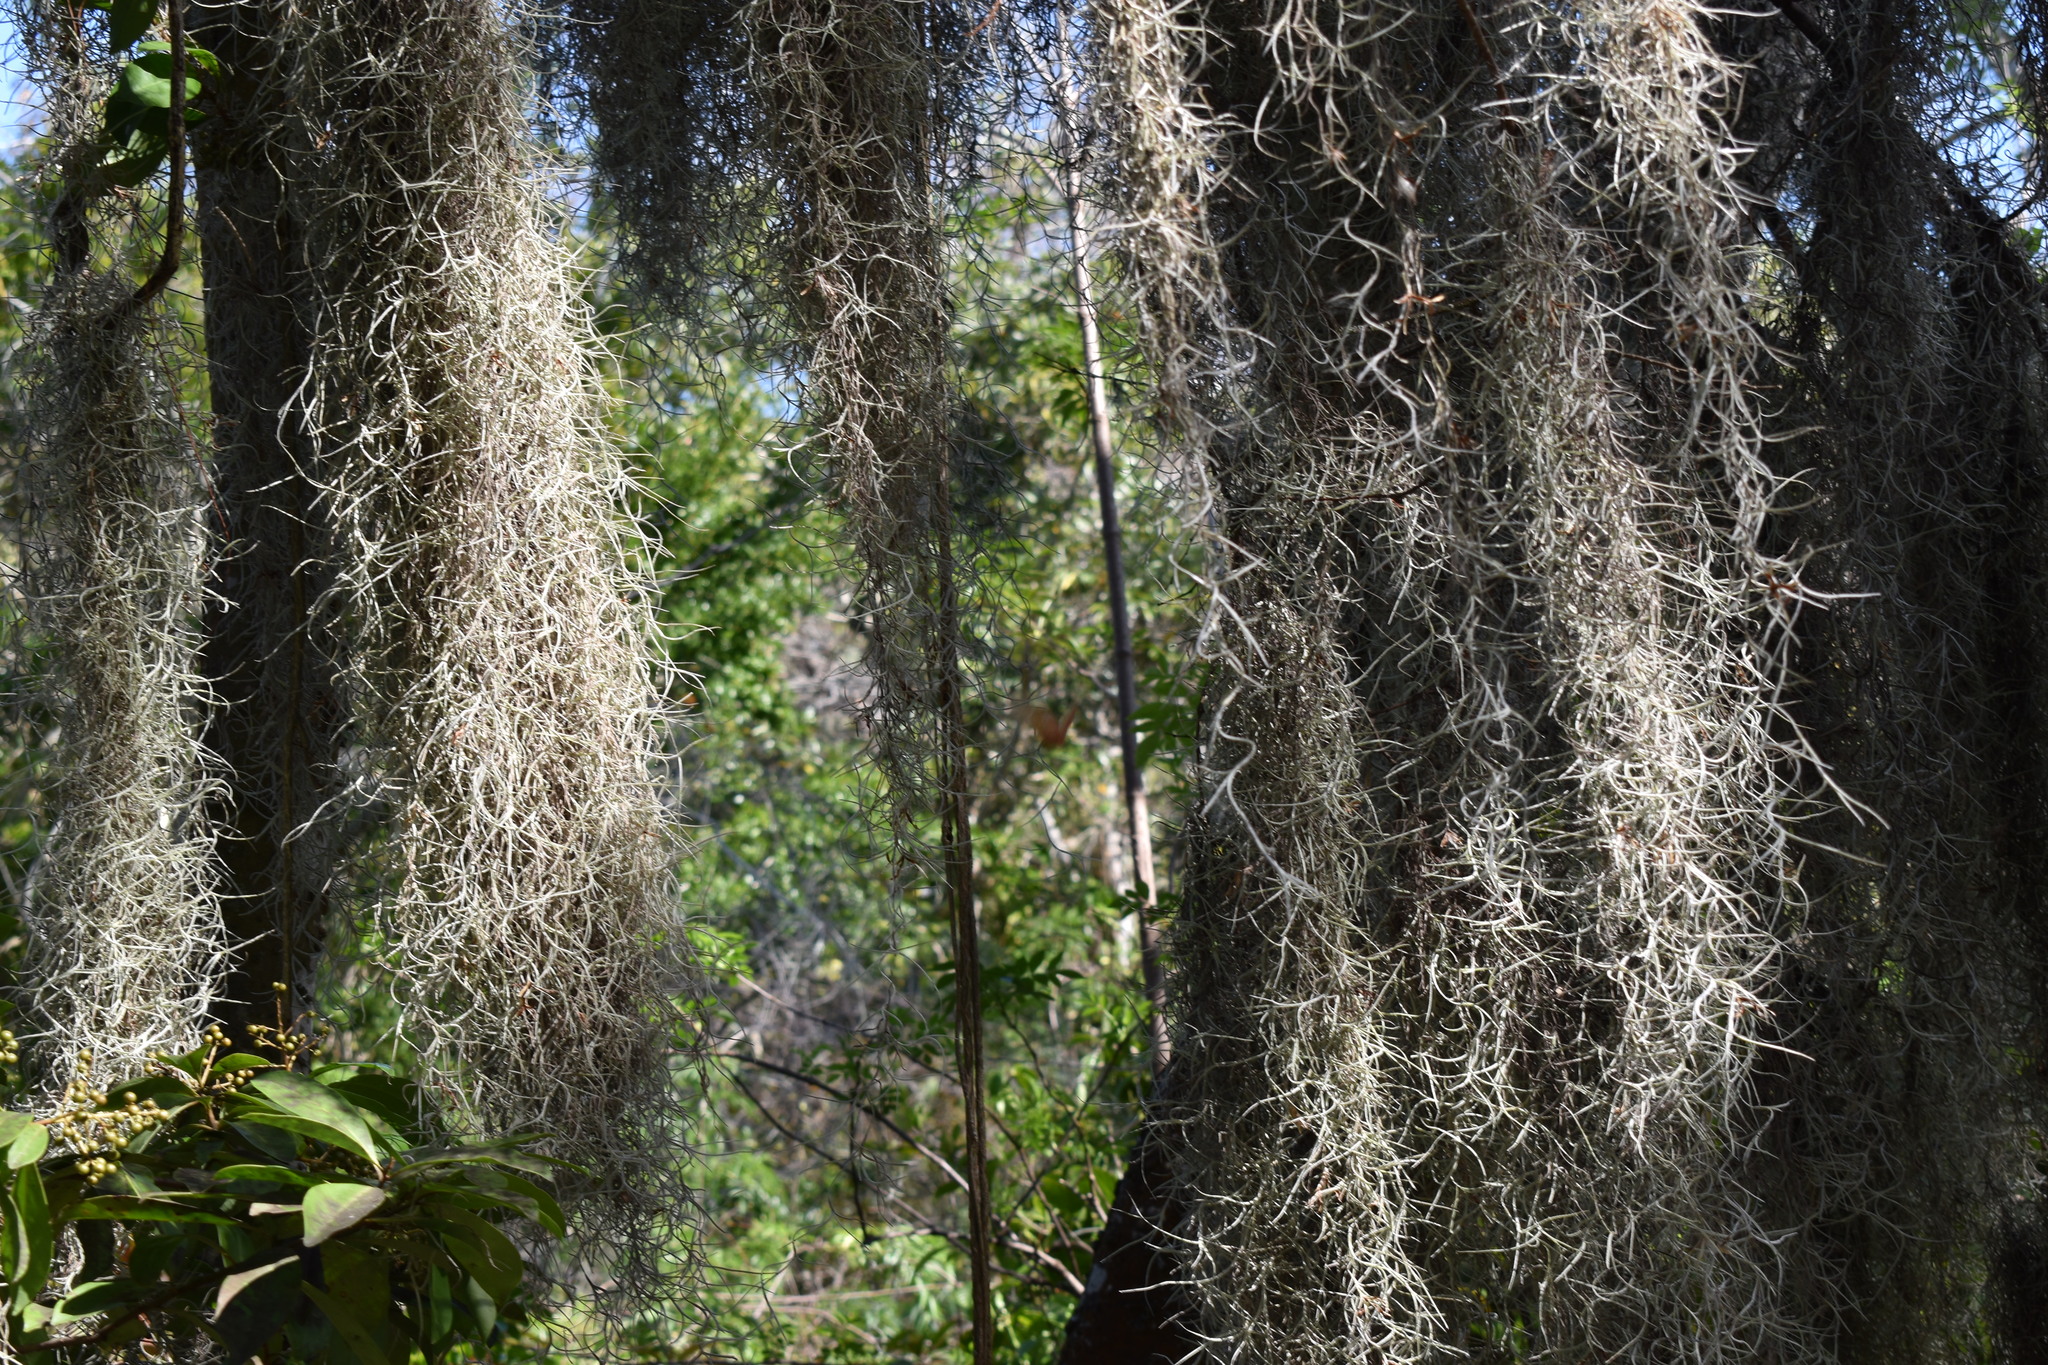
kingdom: Plantae
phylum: Tracheophyta
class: Liliopsida
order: Poales
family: Bromeliaceae
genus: Tillandsia
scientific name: Tillandsia usneoides
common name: Spanish moss
